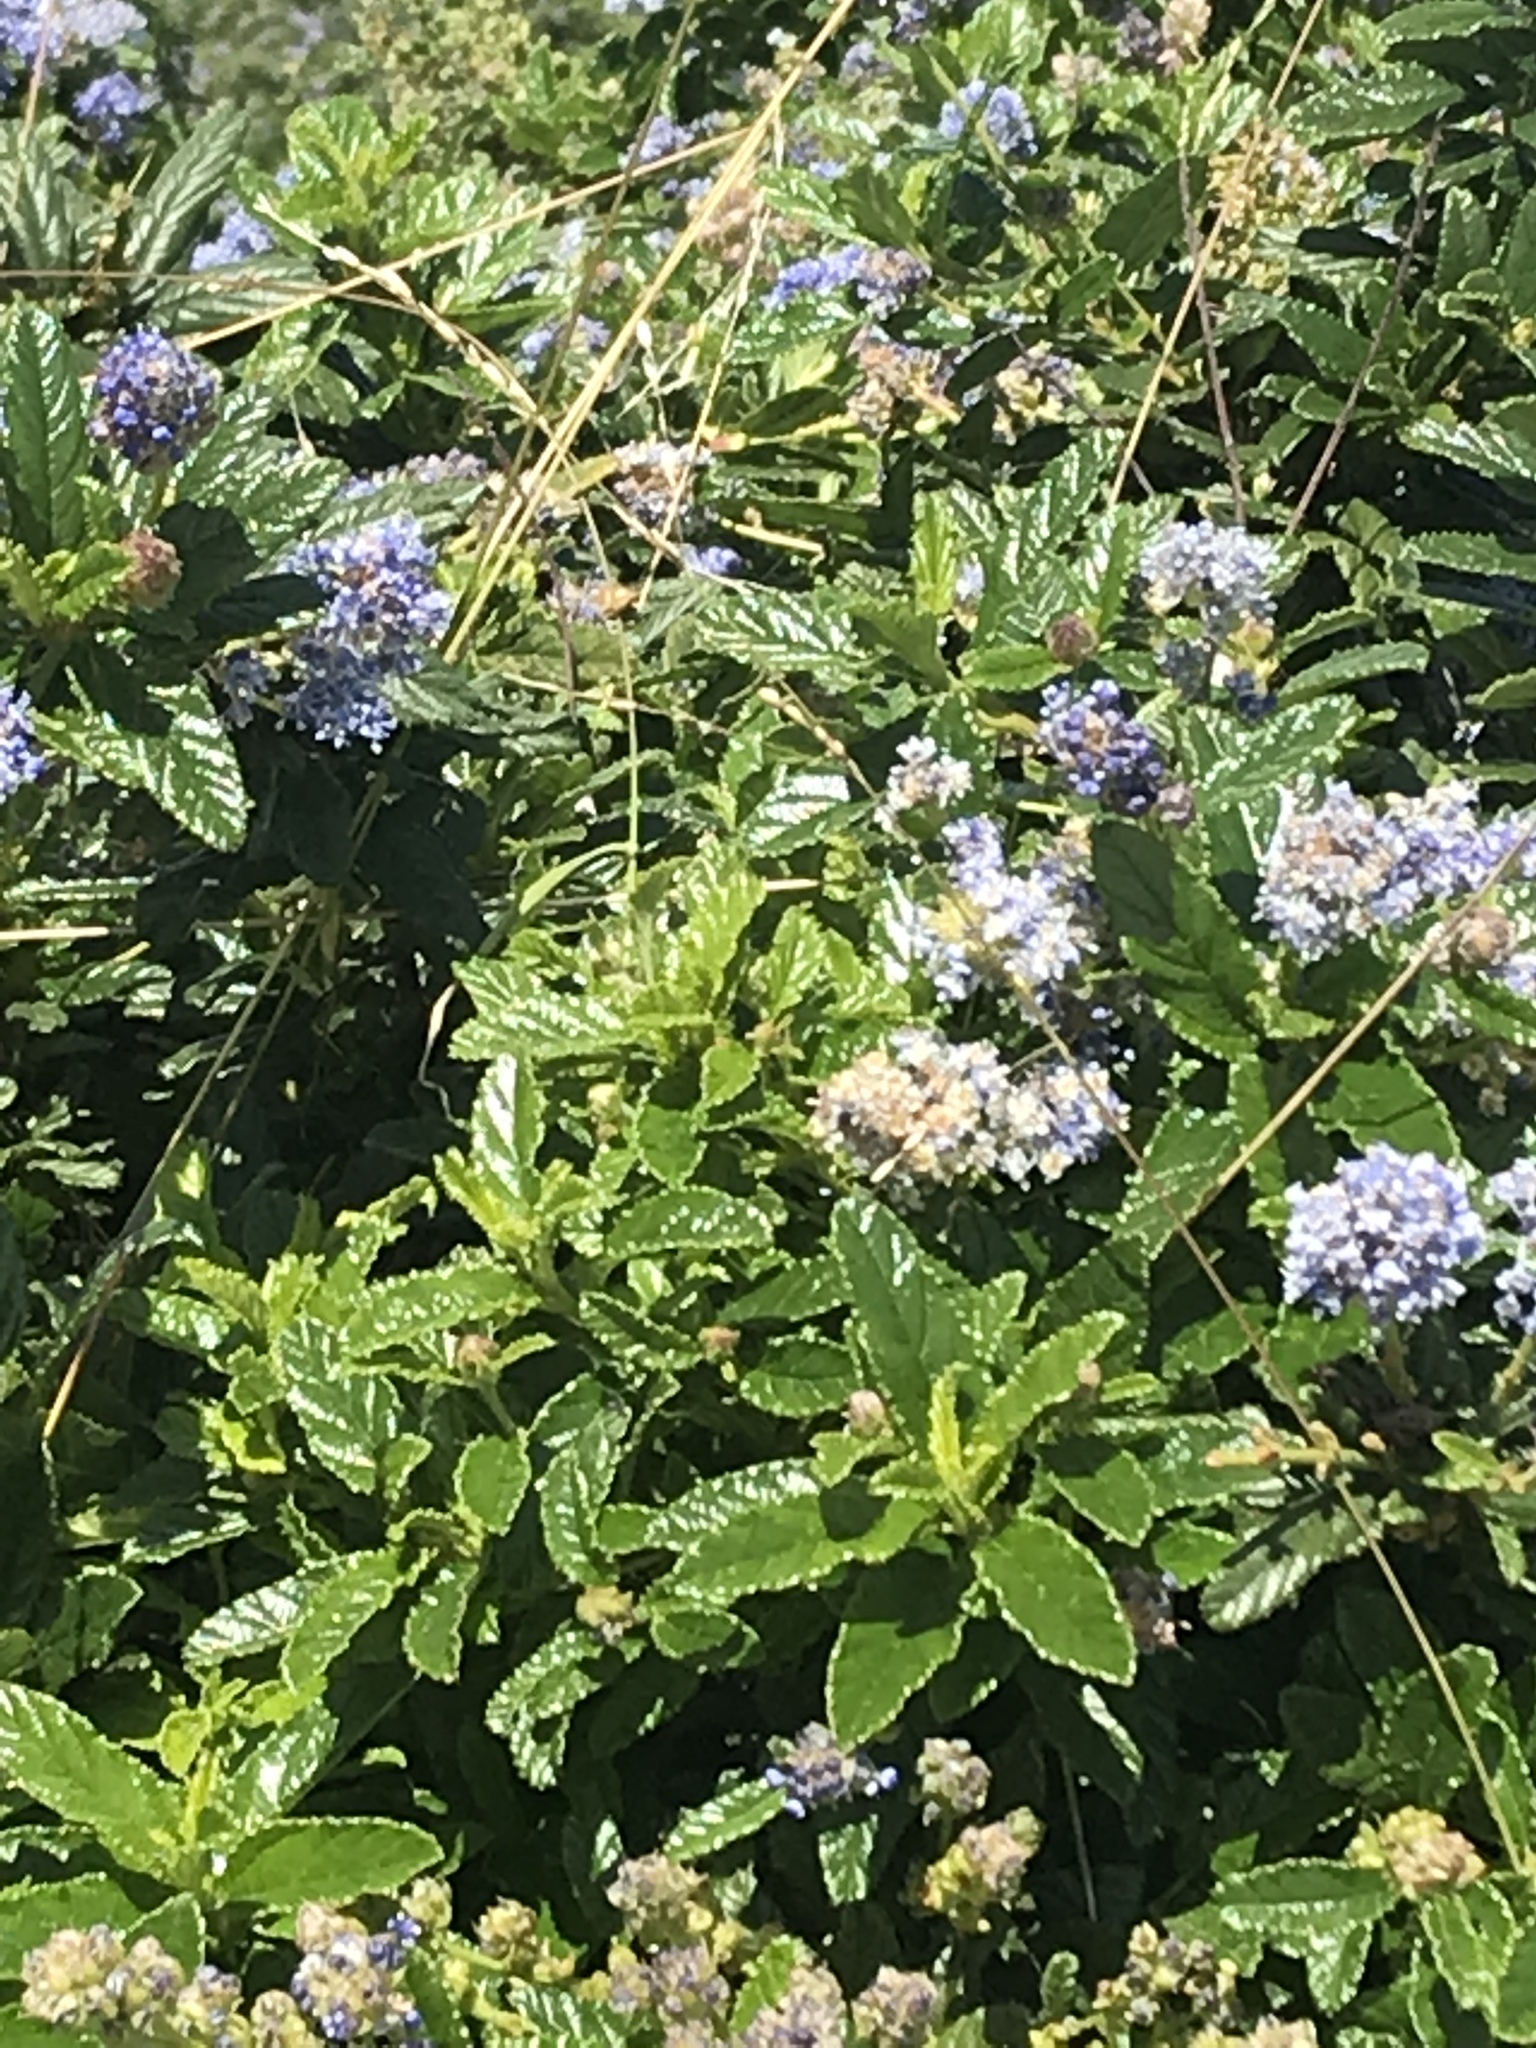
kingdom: Plantae
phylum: Tracheophyta
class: Magnoliopsida
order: Rosales
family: Rhamnaceae
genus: Ceanothus
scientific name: Ceanothus thyrsiflorus
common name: California-lilac
